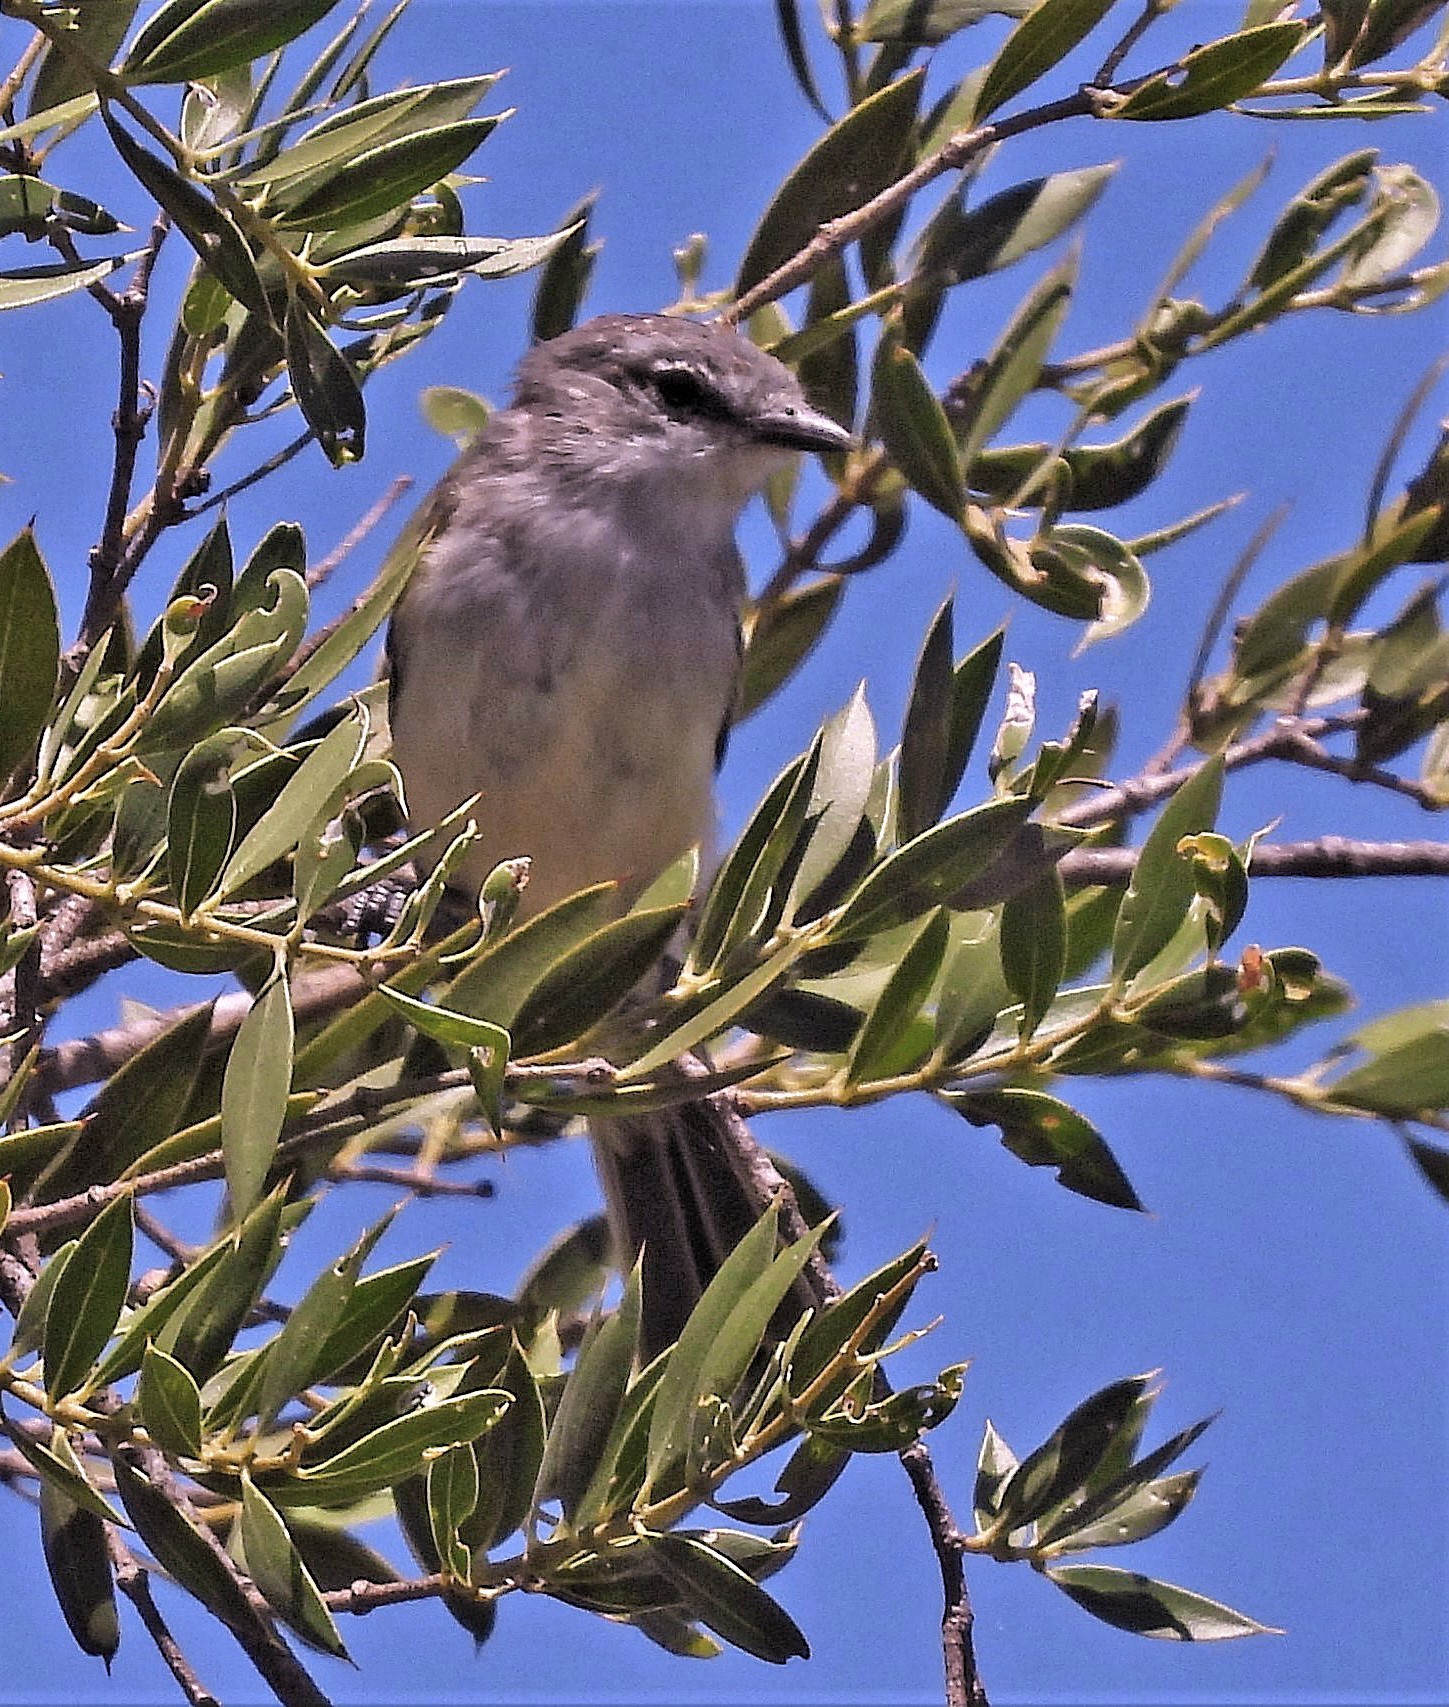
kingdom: Animalia
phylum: Chordata
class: Aves
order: Passeriformes
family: Tyrannidae
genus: Suiriri
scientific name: Suiriri suiriri
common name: Suiriri flycatcher
